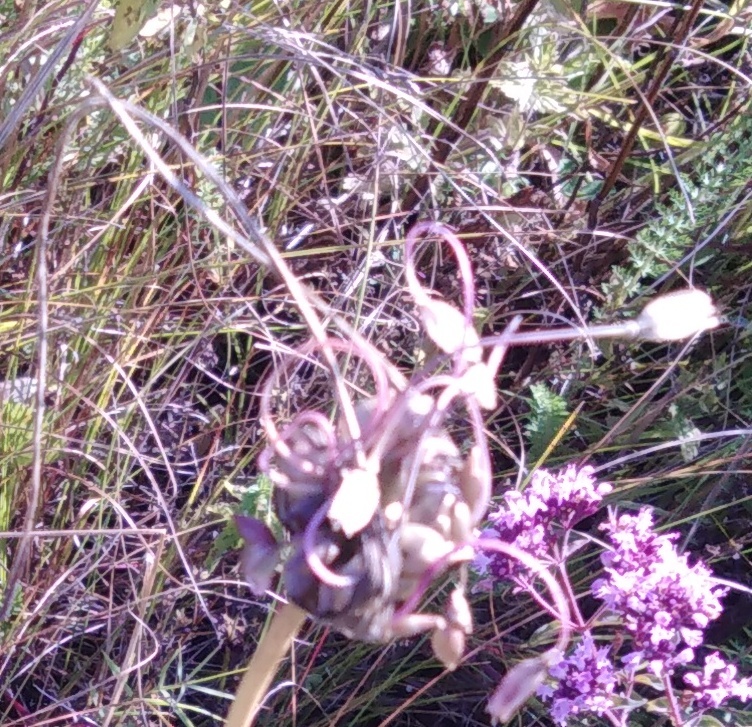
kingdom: Plantae
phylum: Tracheophyta
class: Liliopsida
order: Asparagales
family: Amaryllidaceae
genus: Allium
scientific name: Allium oleraceum
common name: Field garlic
